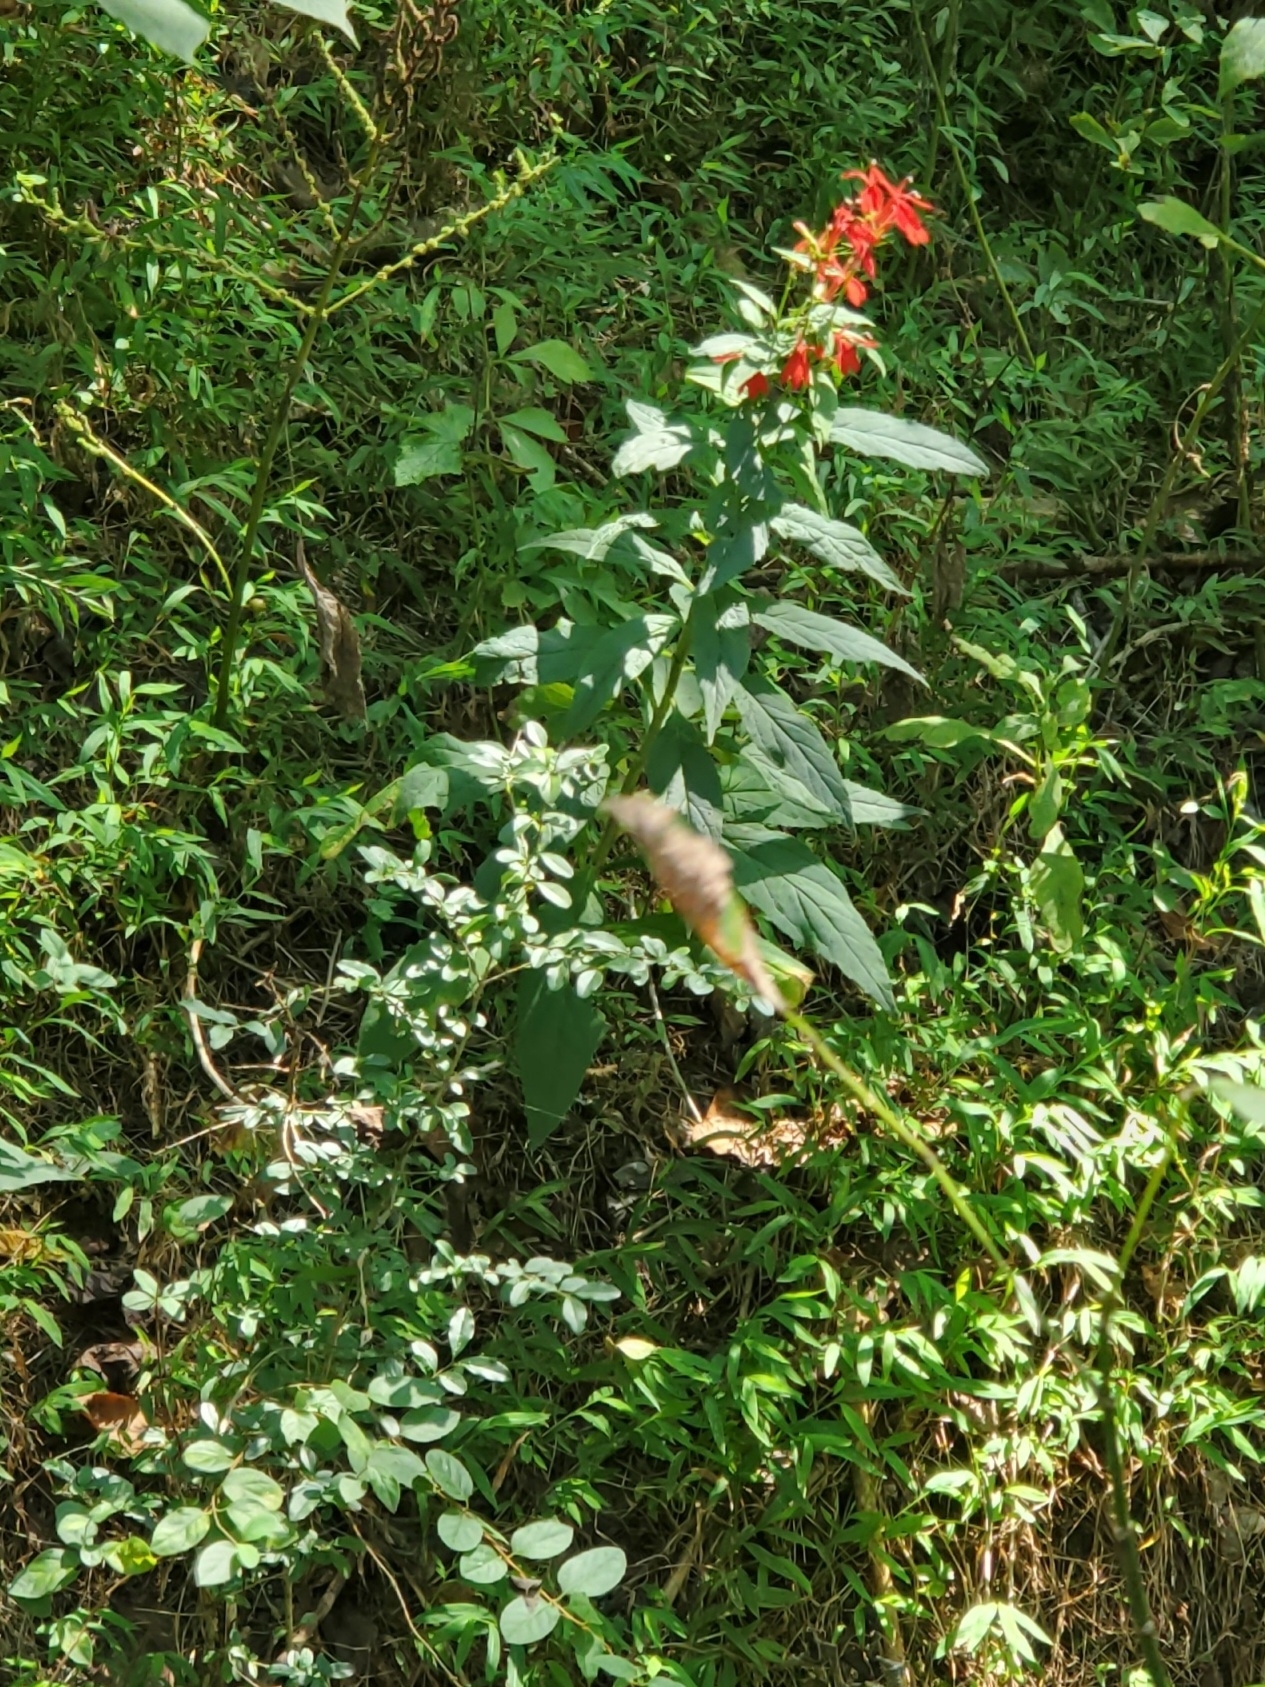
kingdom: Plantae
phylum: Tracheophyta
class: Magnoliopsida
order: Asterales
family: Campanulaceae
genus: Lobelia
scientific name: Lobelia cardinalis
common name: Cardinal flower
